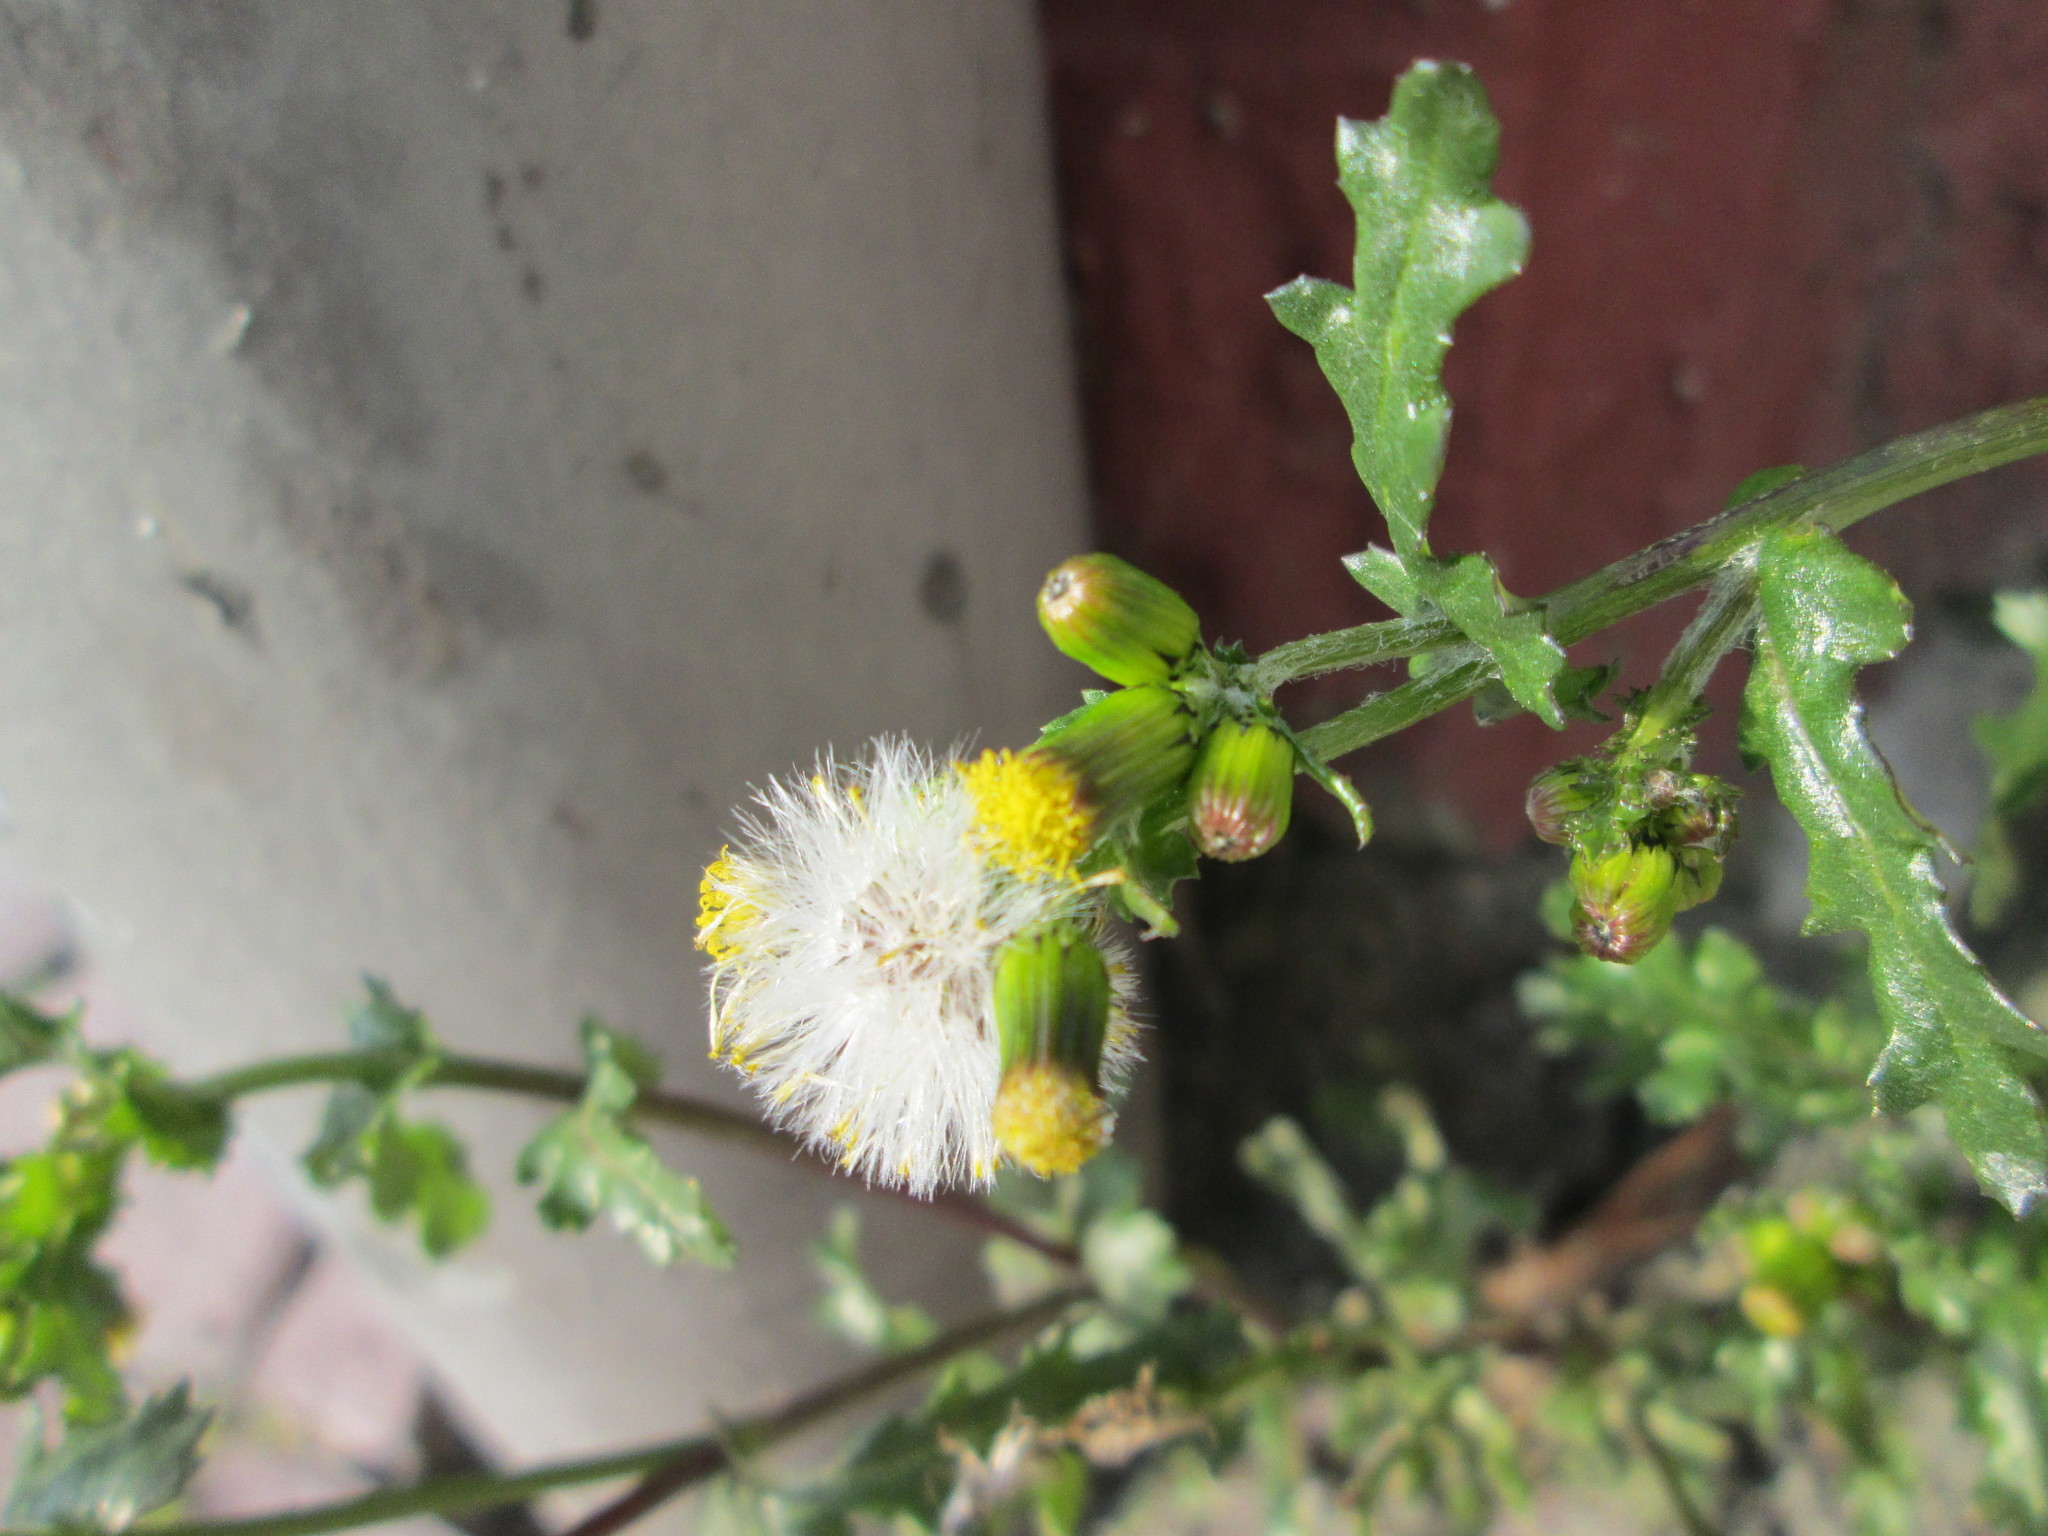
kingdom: Plantae
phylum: Tracheophyta
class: Magnoliopsida
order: Asterales
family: Asteraceae
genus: Senecio
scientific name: Senecio vulgaris
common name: Old-man-in-the-spring
